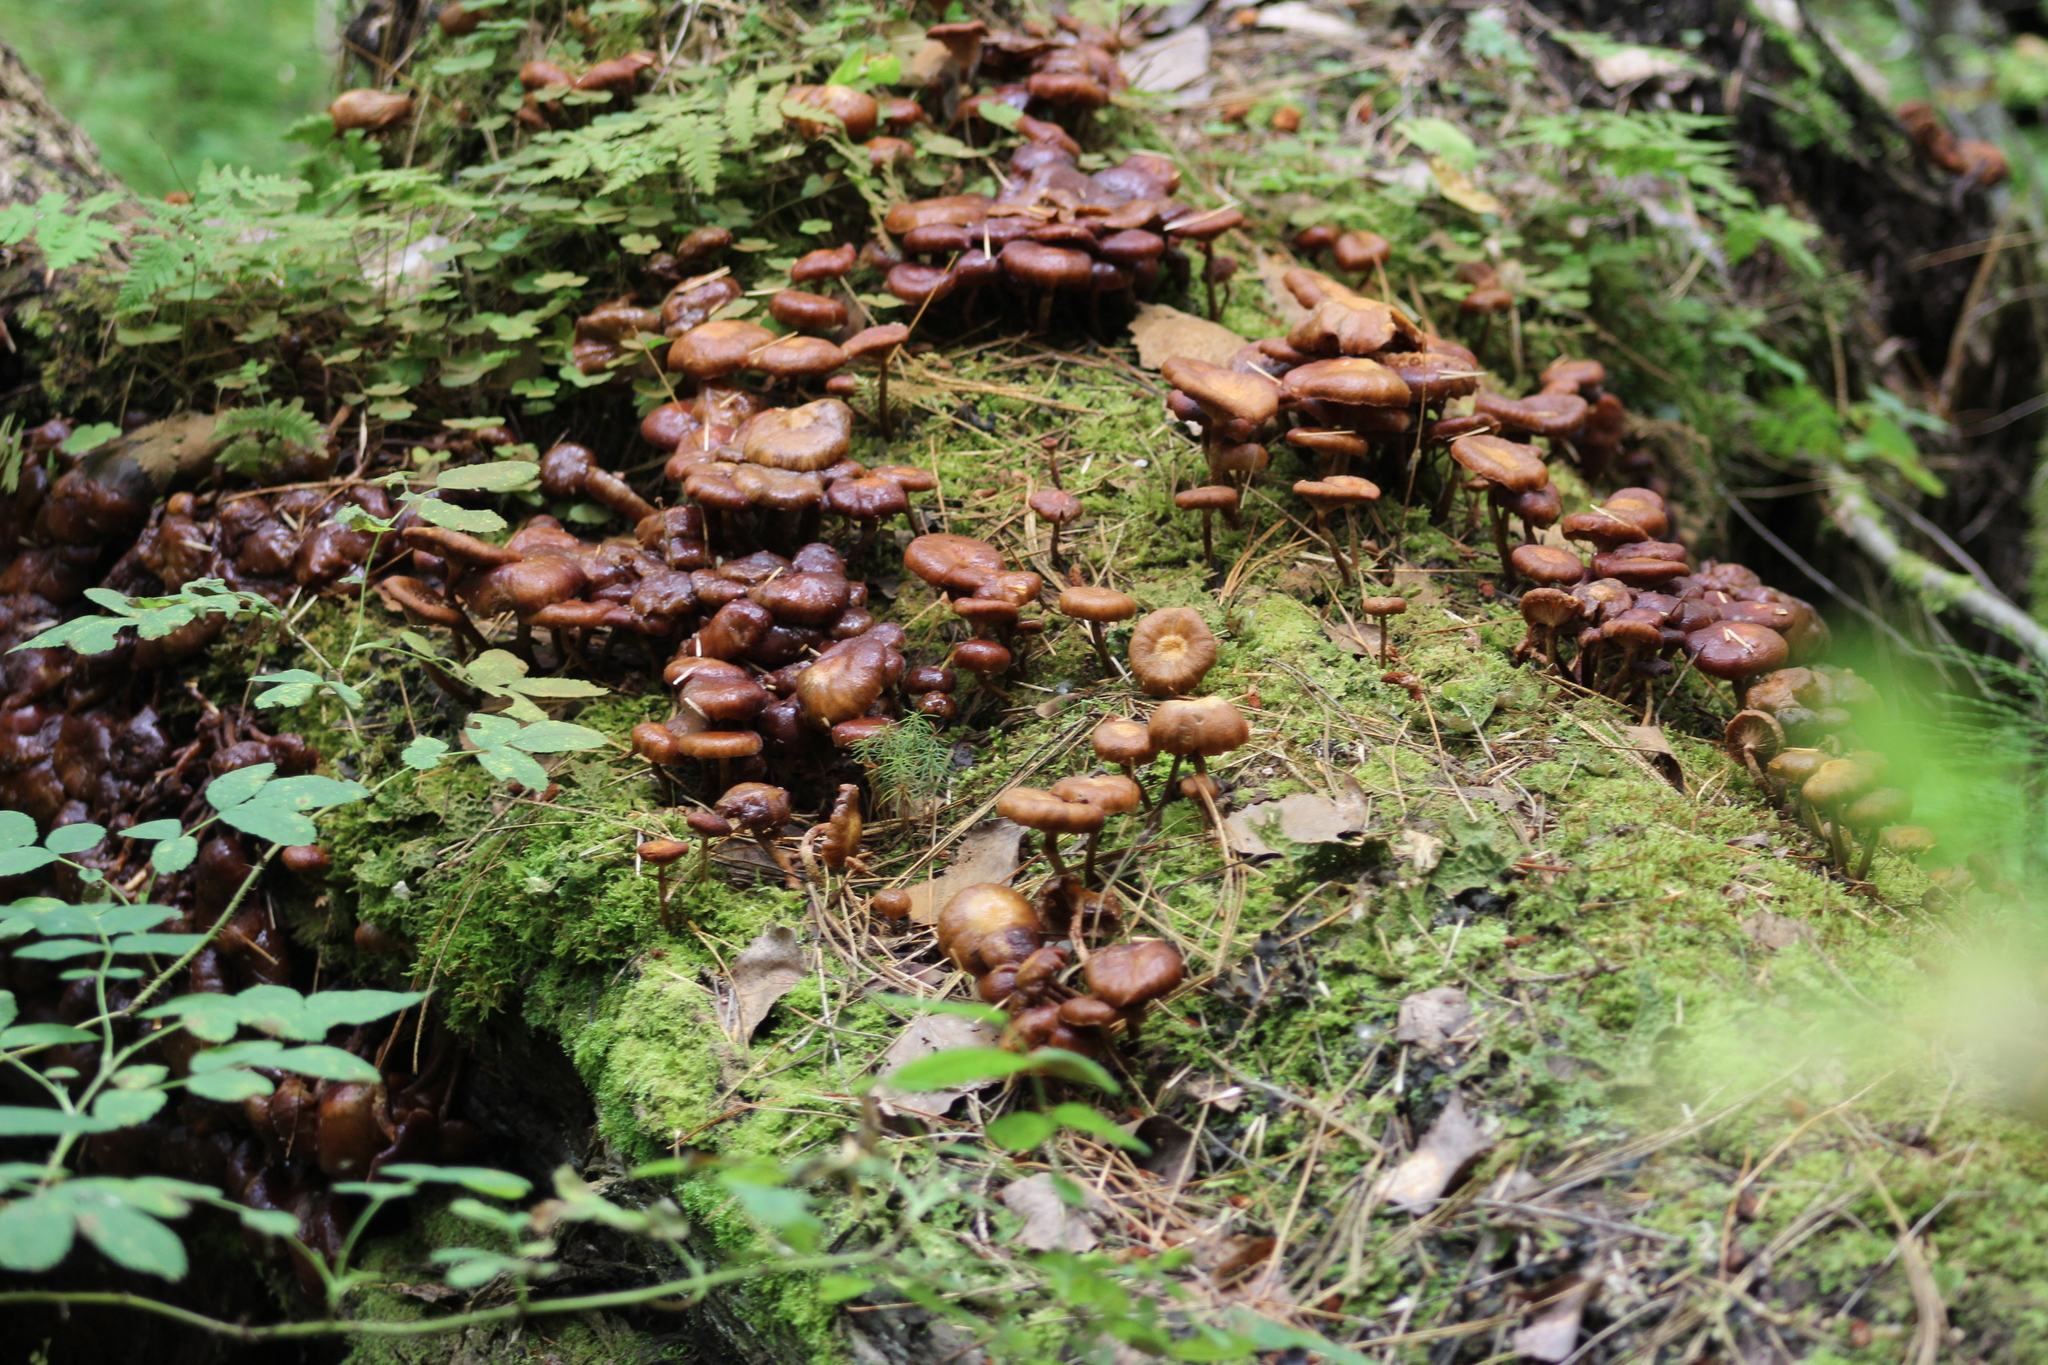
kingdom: Fungi
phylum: Basidiomycota
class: Agaricomycetes
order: Agaricales
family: Strophariaceae
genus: Kuehneromyces
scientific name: Kuehneromyces mutabilis
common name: Sheathed woodtuft
